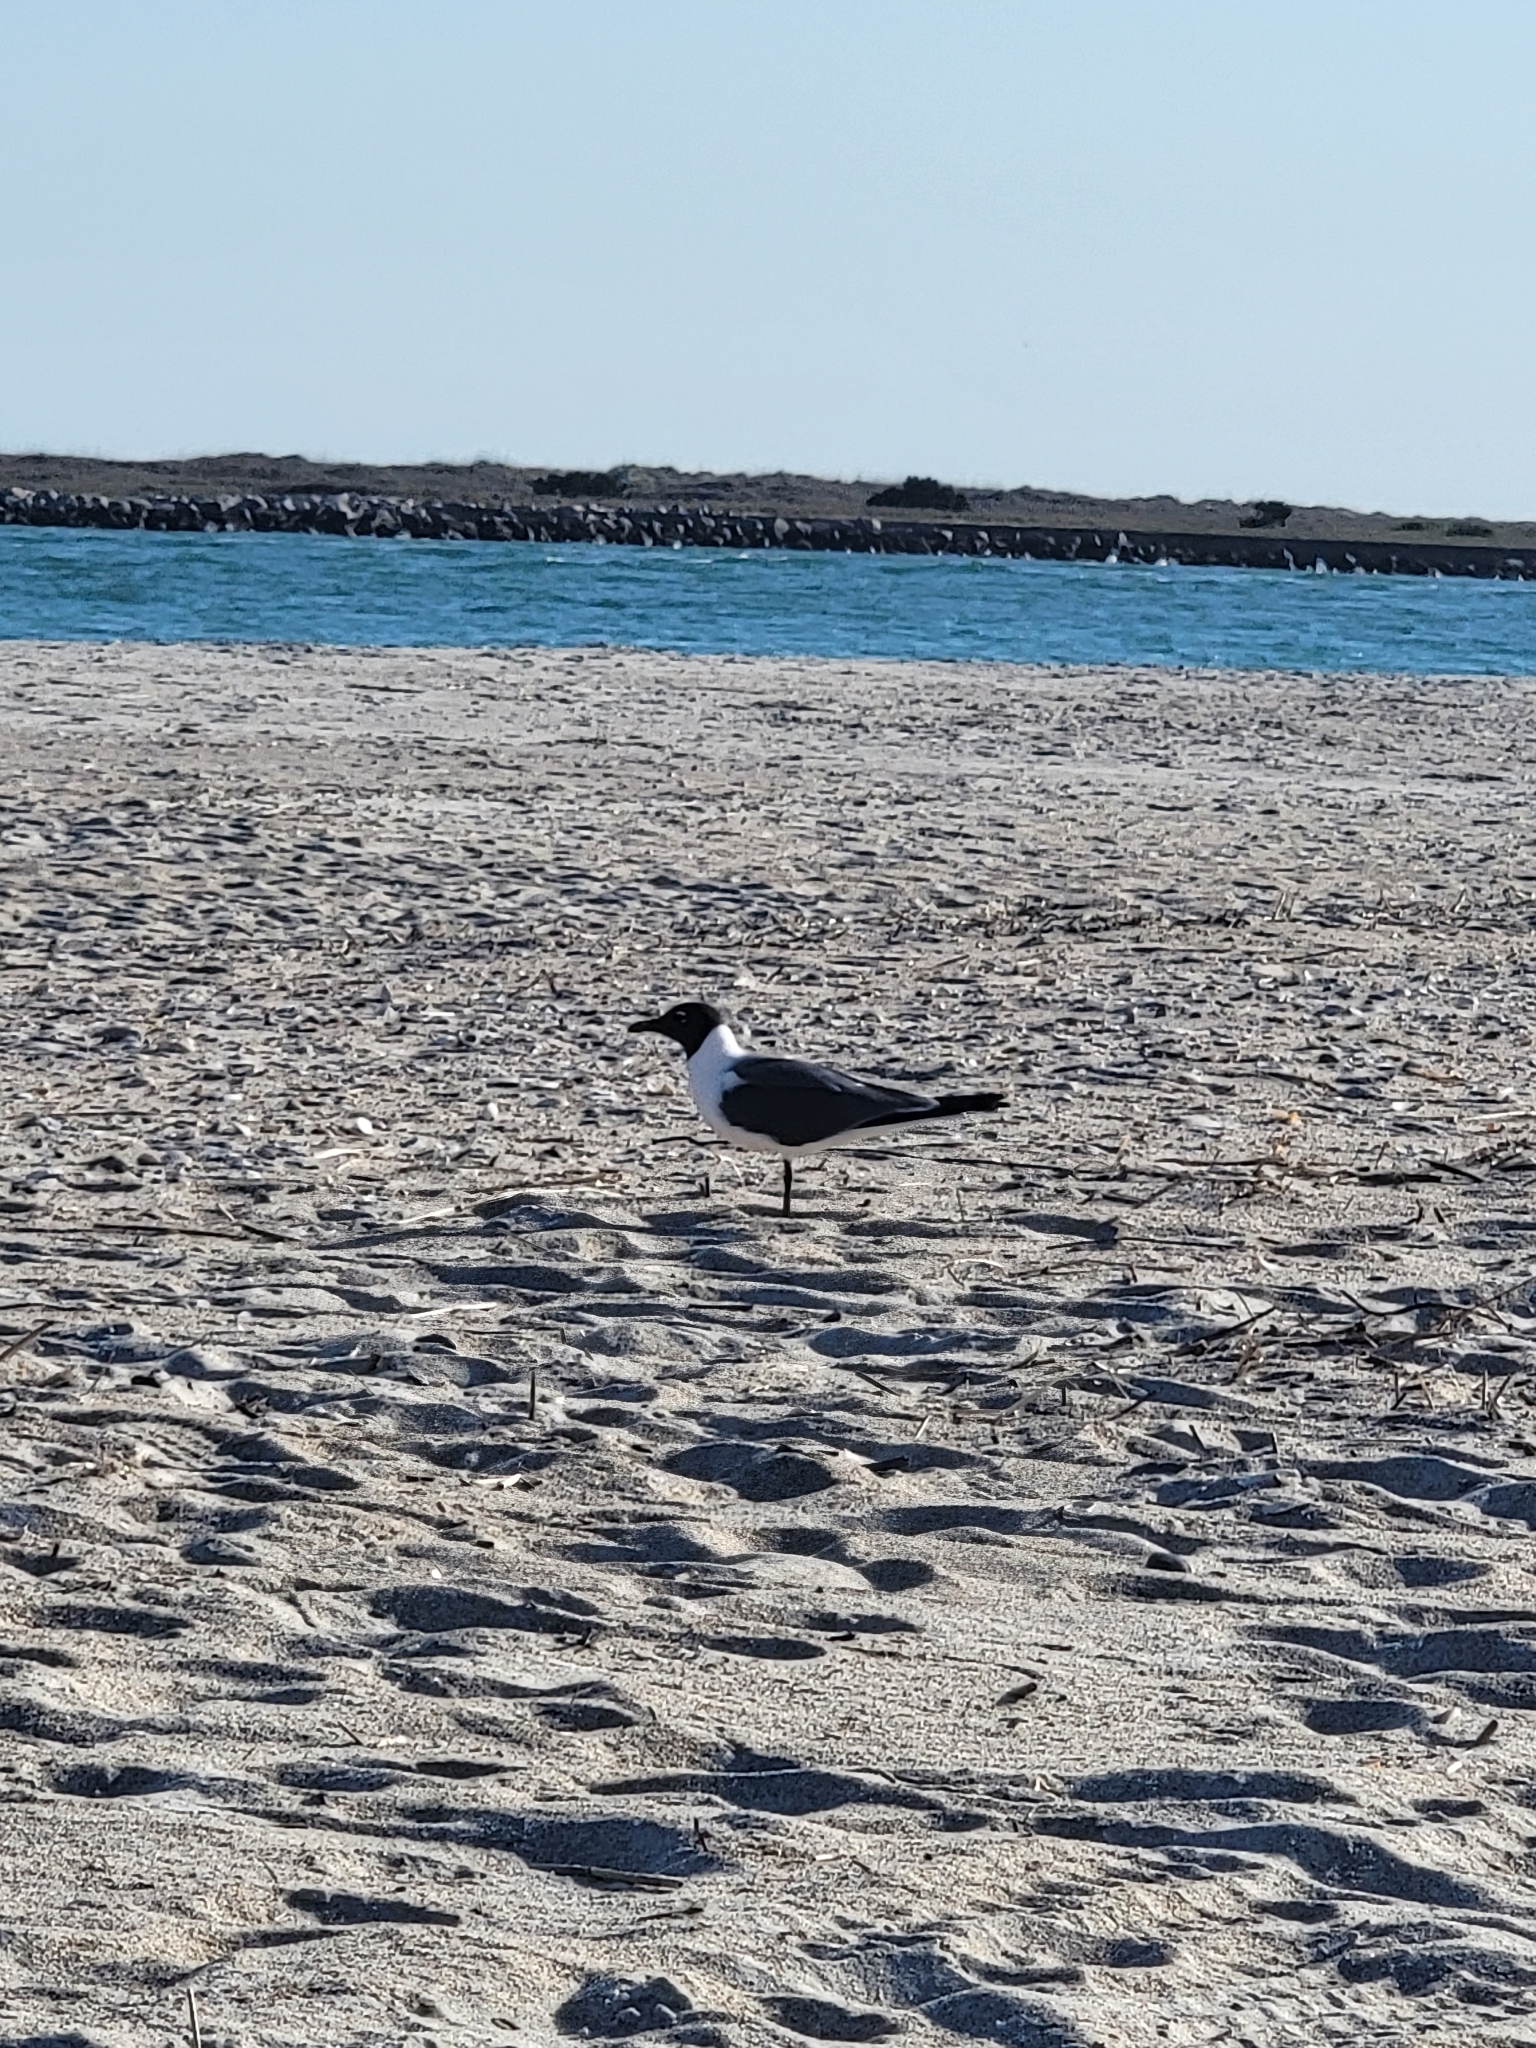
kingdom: Animalia
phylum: Chordata
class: Aves
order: Charadriiformes
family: Laridae
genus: Leucophaeus
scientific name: Leucophaeus atricilla
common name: Laughing gull
